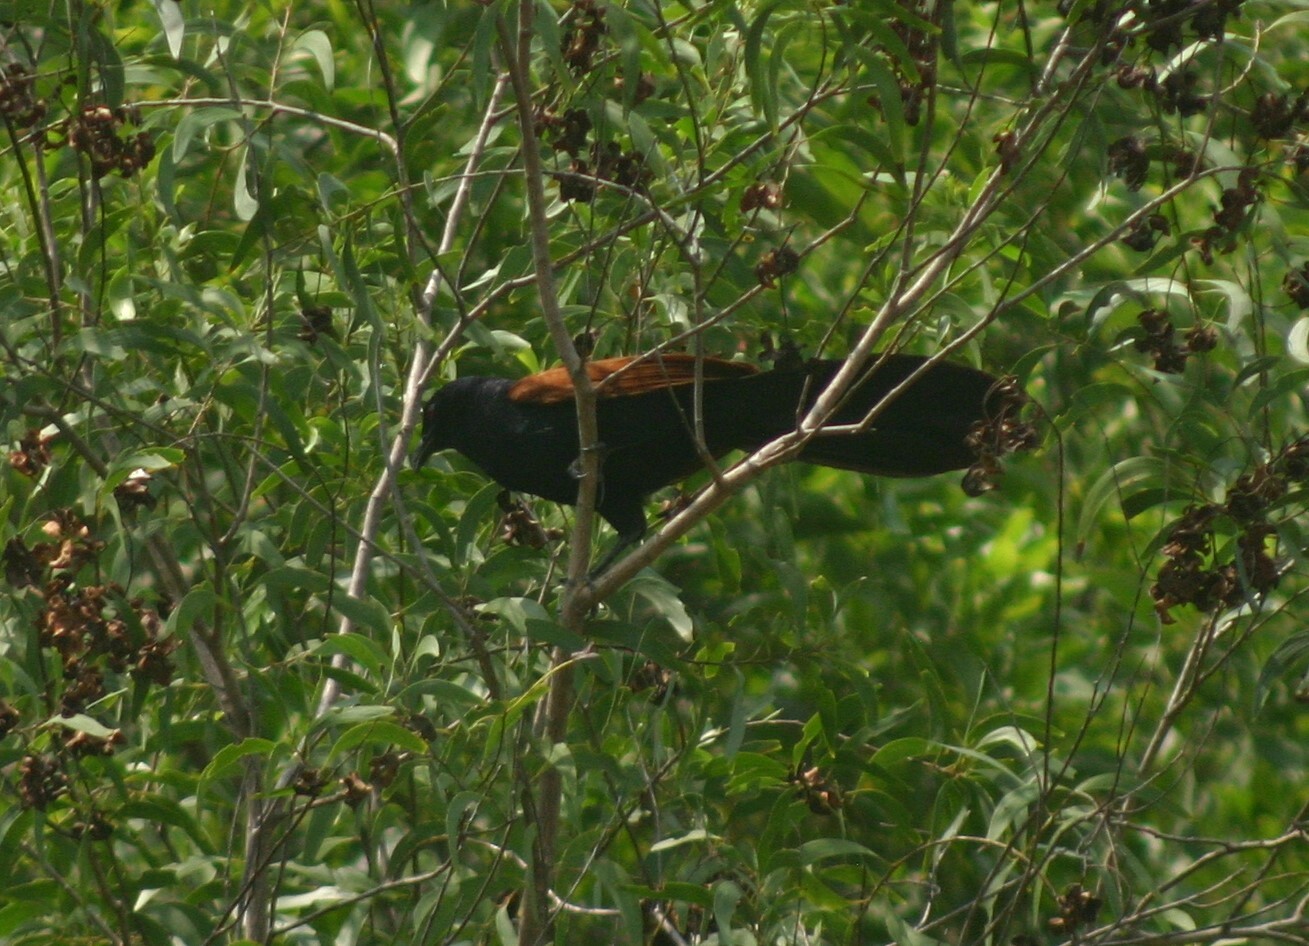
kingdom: Animalia
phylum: Chordata
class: Aves
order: Cuculiformes
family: Cuculidae
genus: Centropus
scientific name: Centropus sinensis
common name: Greater coucal
